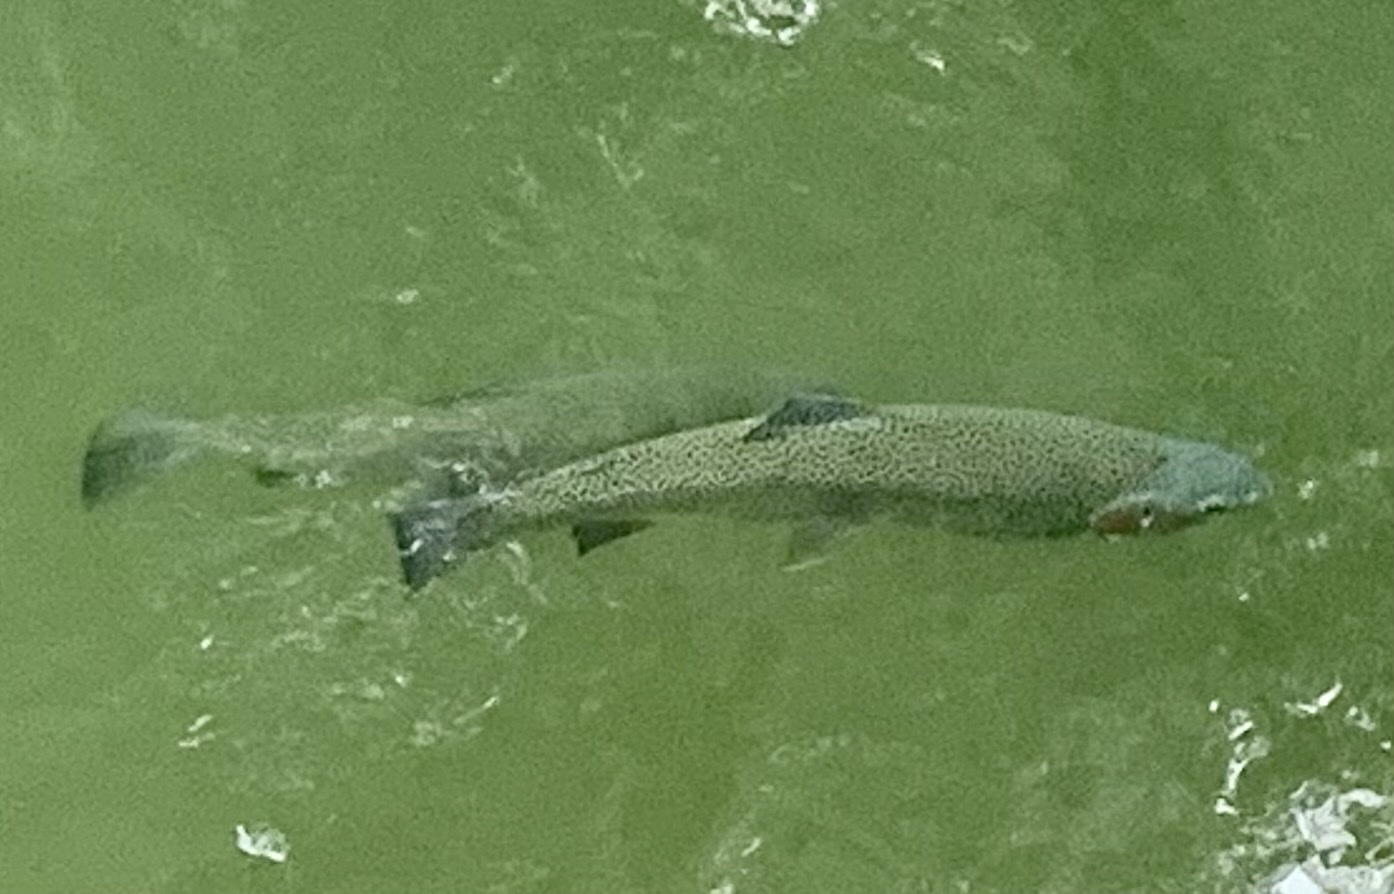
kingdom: Animalia
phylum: Chordata
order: Salmoniformes
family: Salmonidae
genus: Oncorhynchus
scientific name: Oncorhynchus mykiss
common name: Rainbow trout
